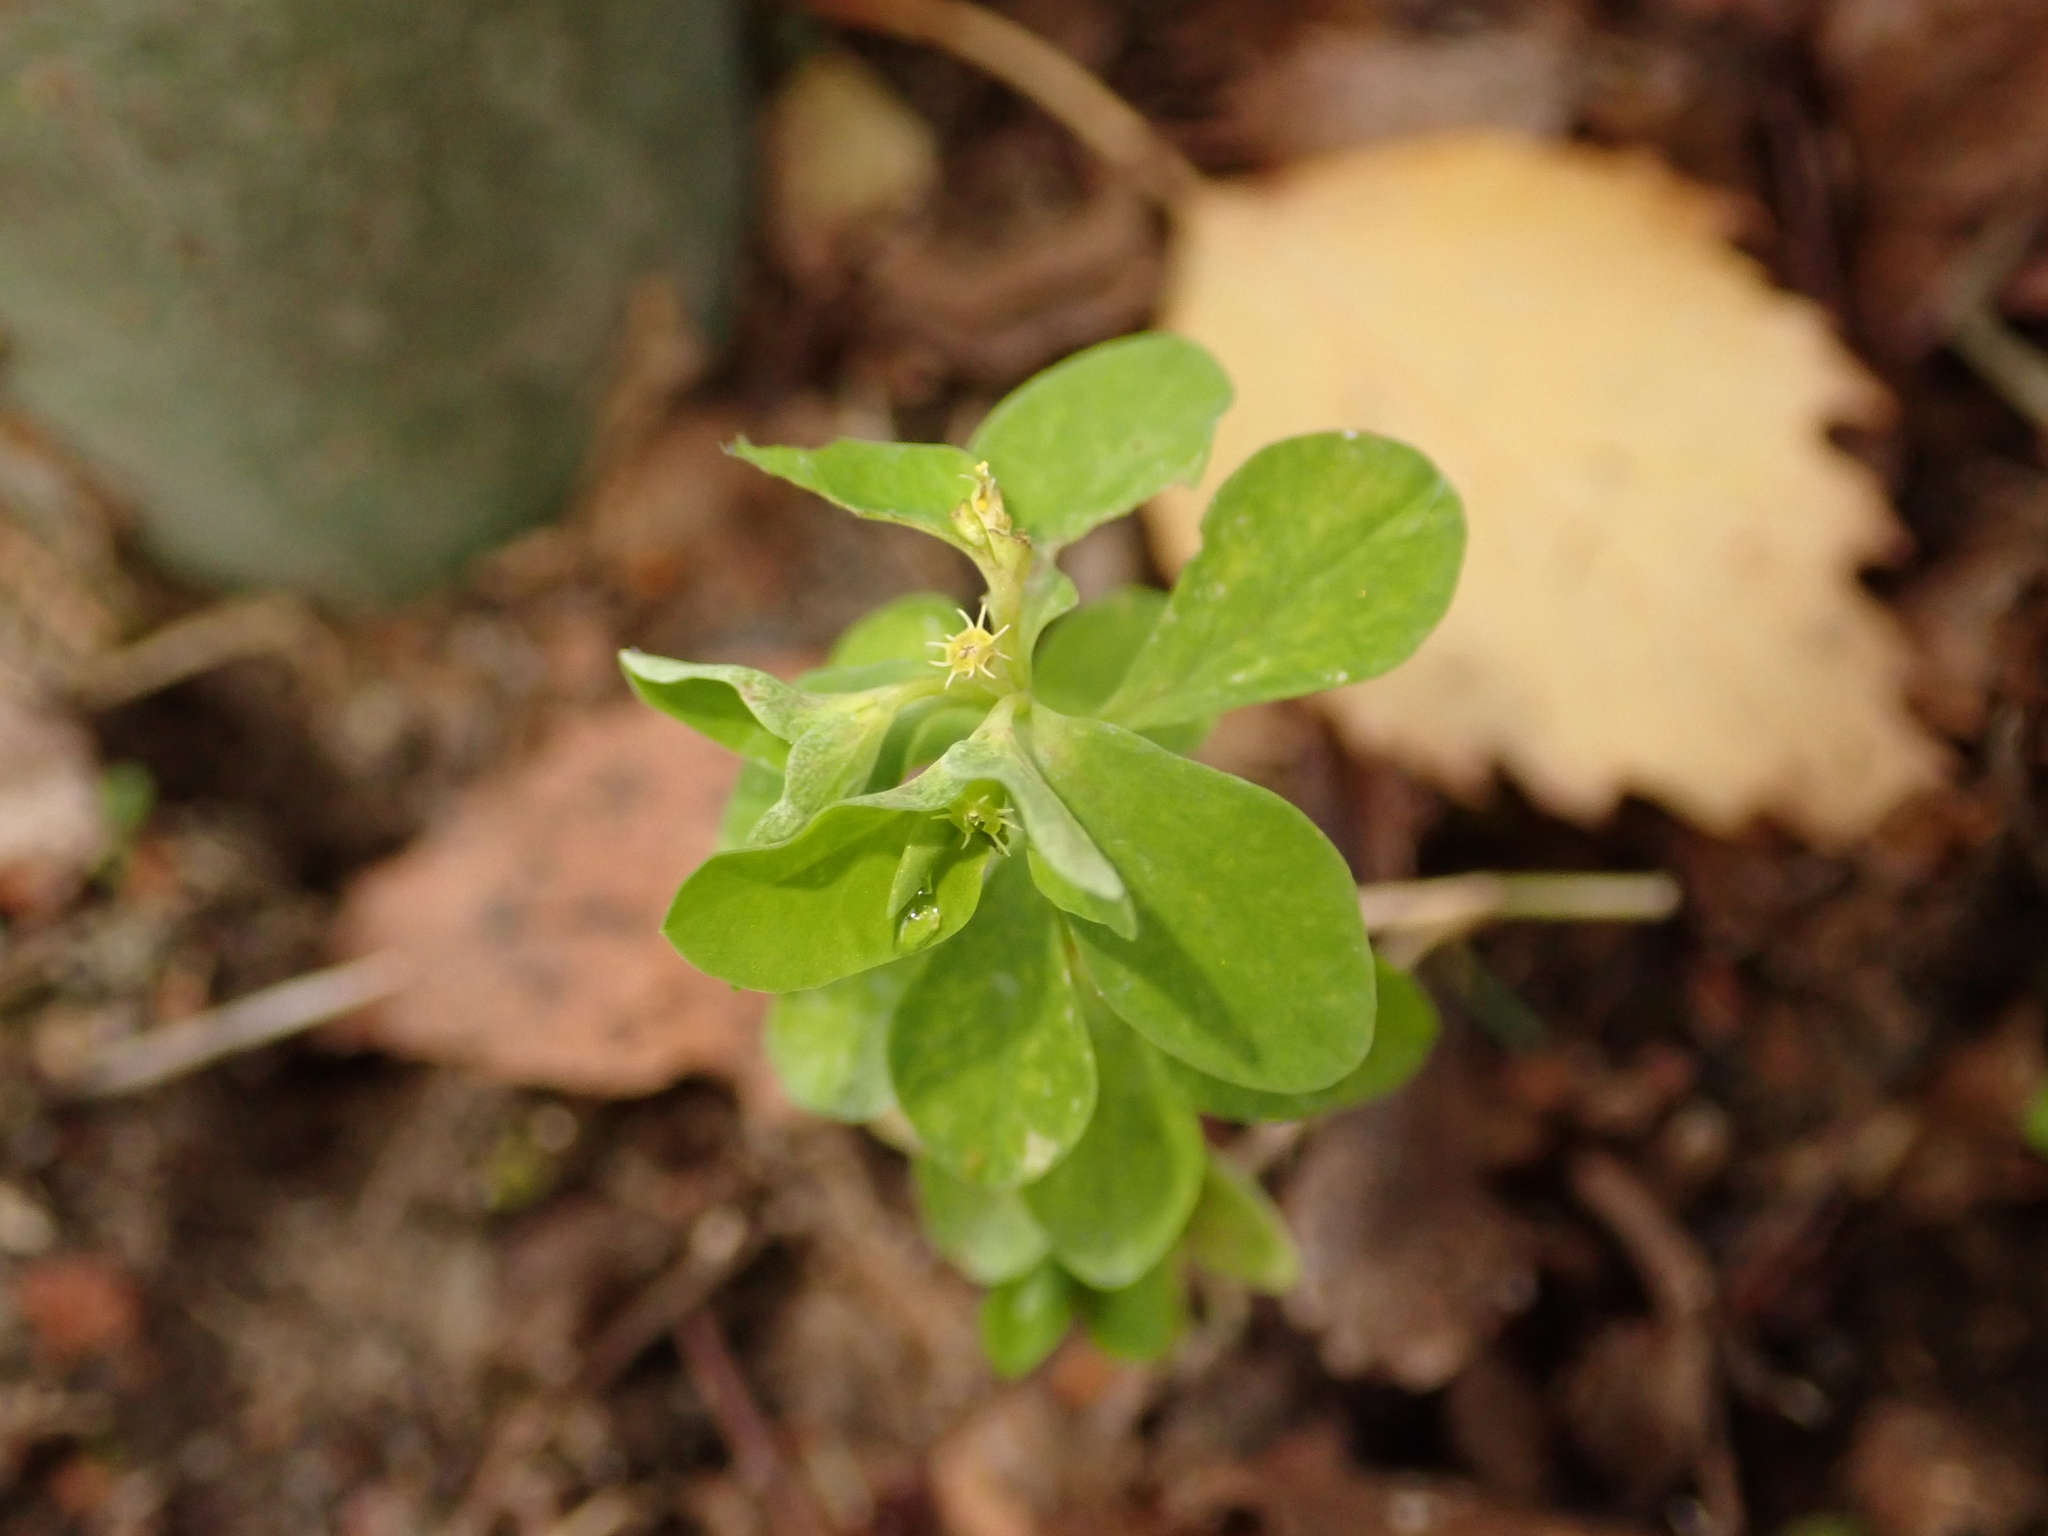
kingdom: Plantae
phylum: Tracheophyta
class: Magnoliopsida
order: Malpighiales
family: Euphorbiaceae
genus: Euphorbia
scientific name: Euphorbia peplus
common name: Petty spurge
